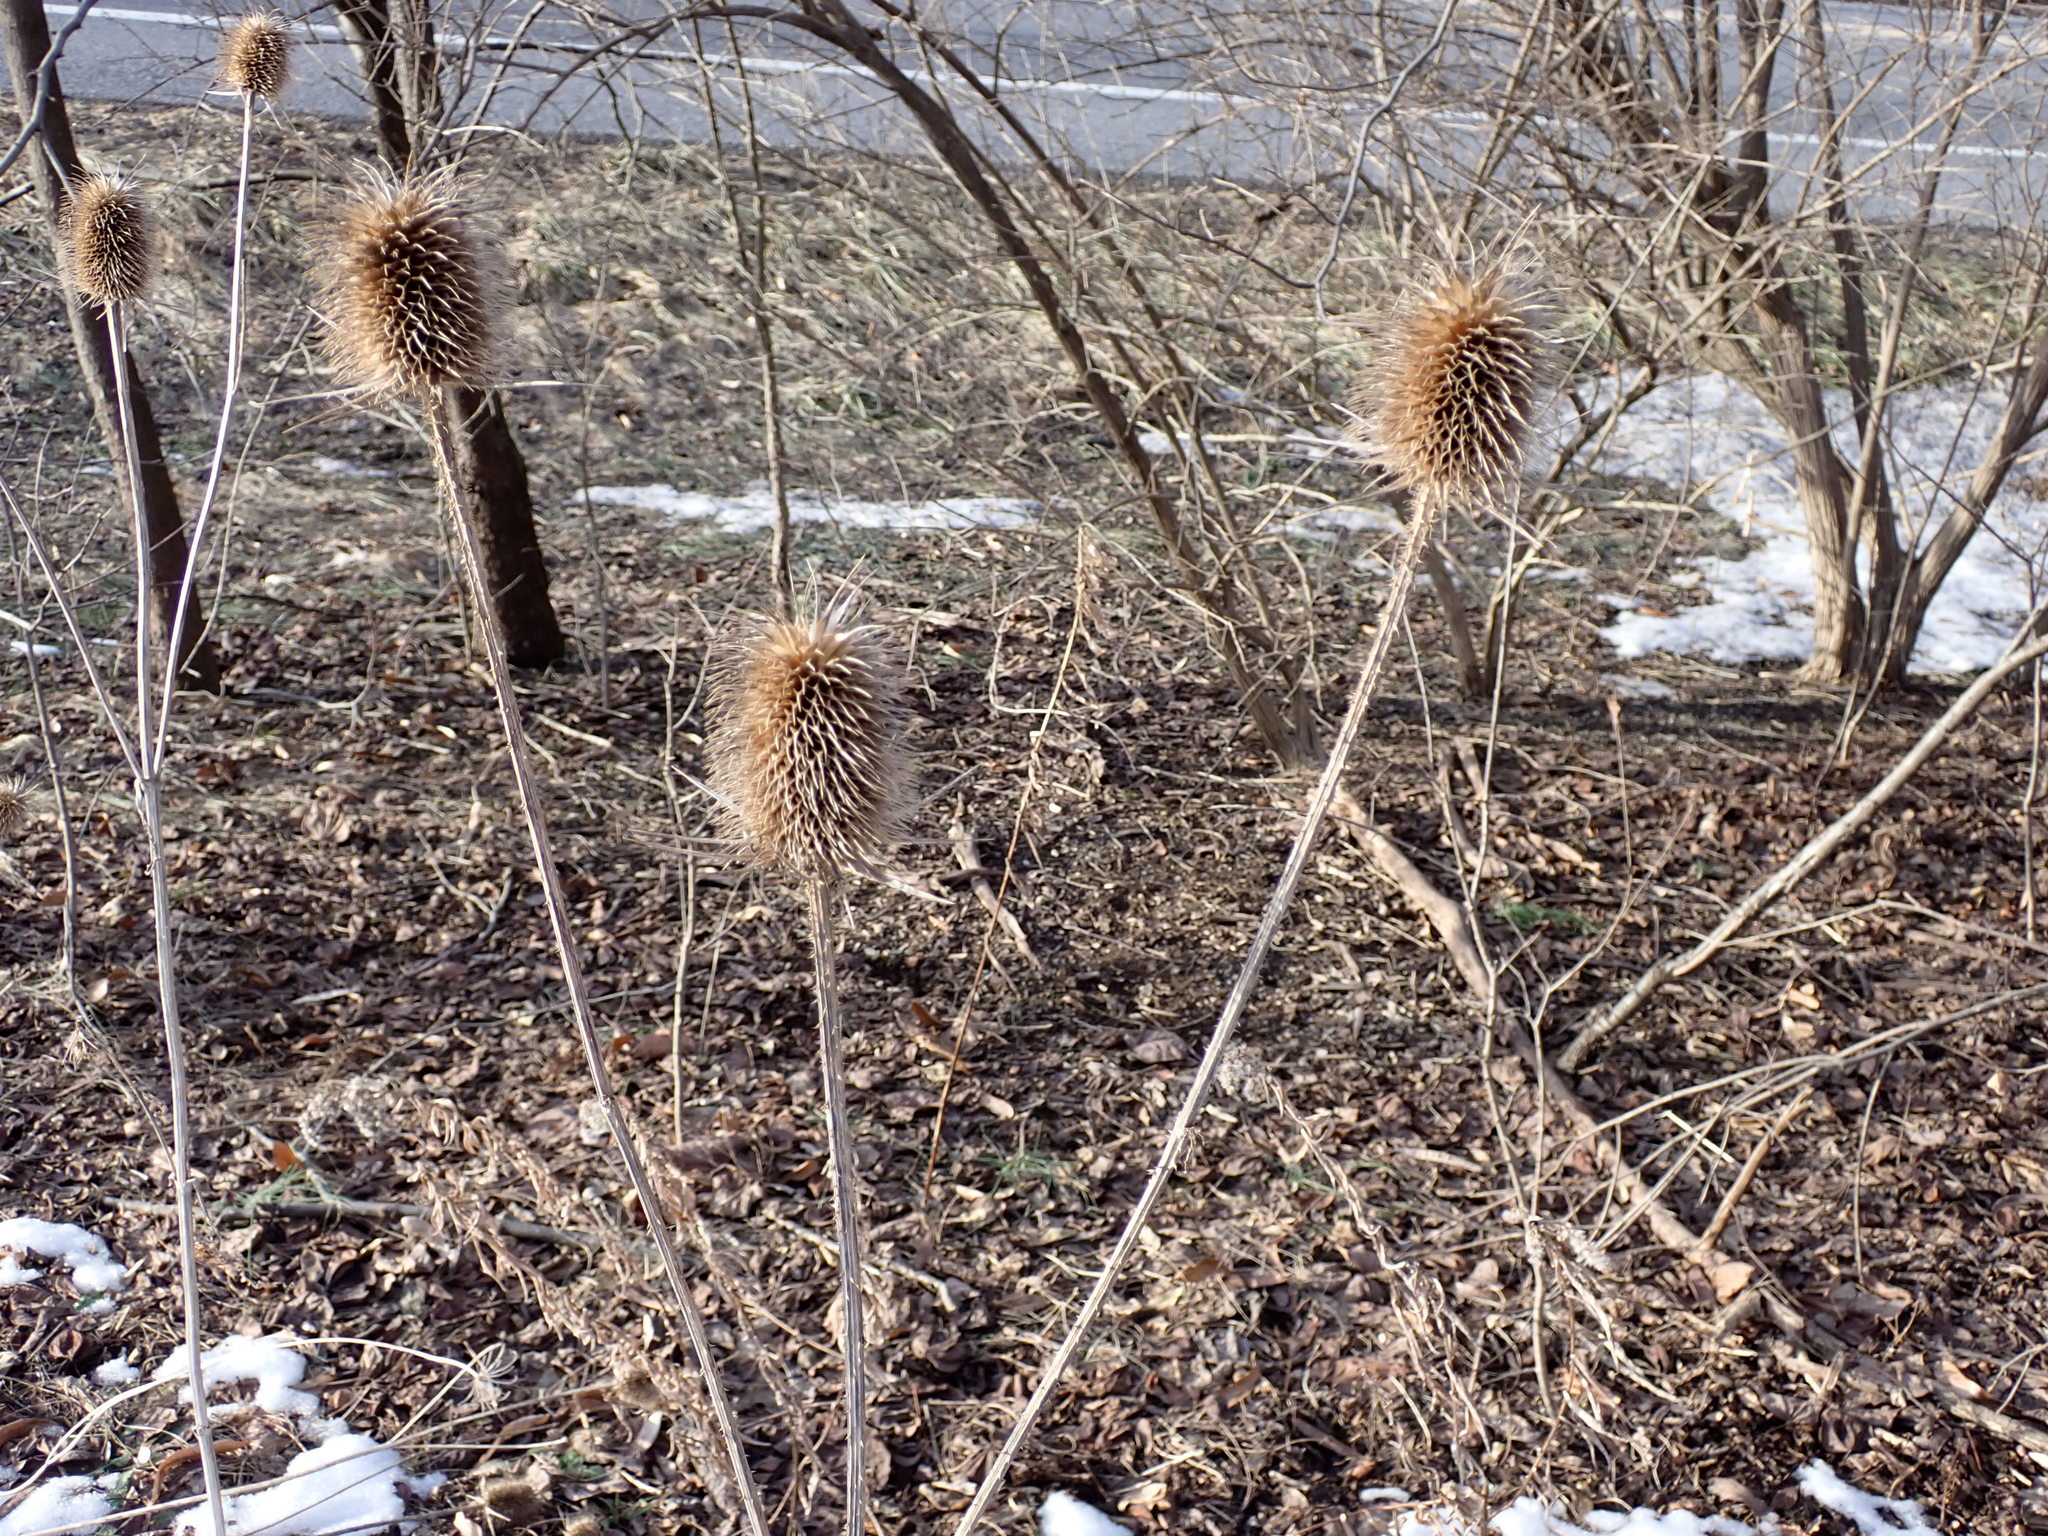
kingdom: Plantae
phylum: Tracheophyta
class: Magnoliopsida
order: Dipsacales
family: Caprifoliaceae
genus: Dipsacus
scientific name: Dipsacus laciniatus
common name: Cut-leaved teasel
